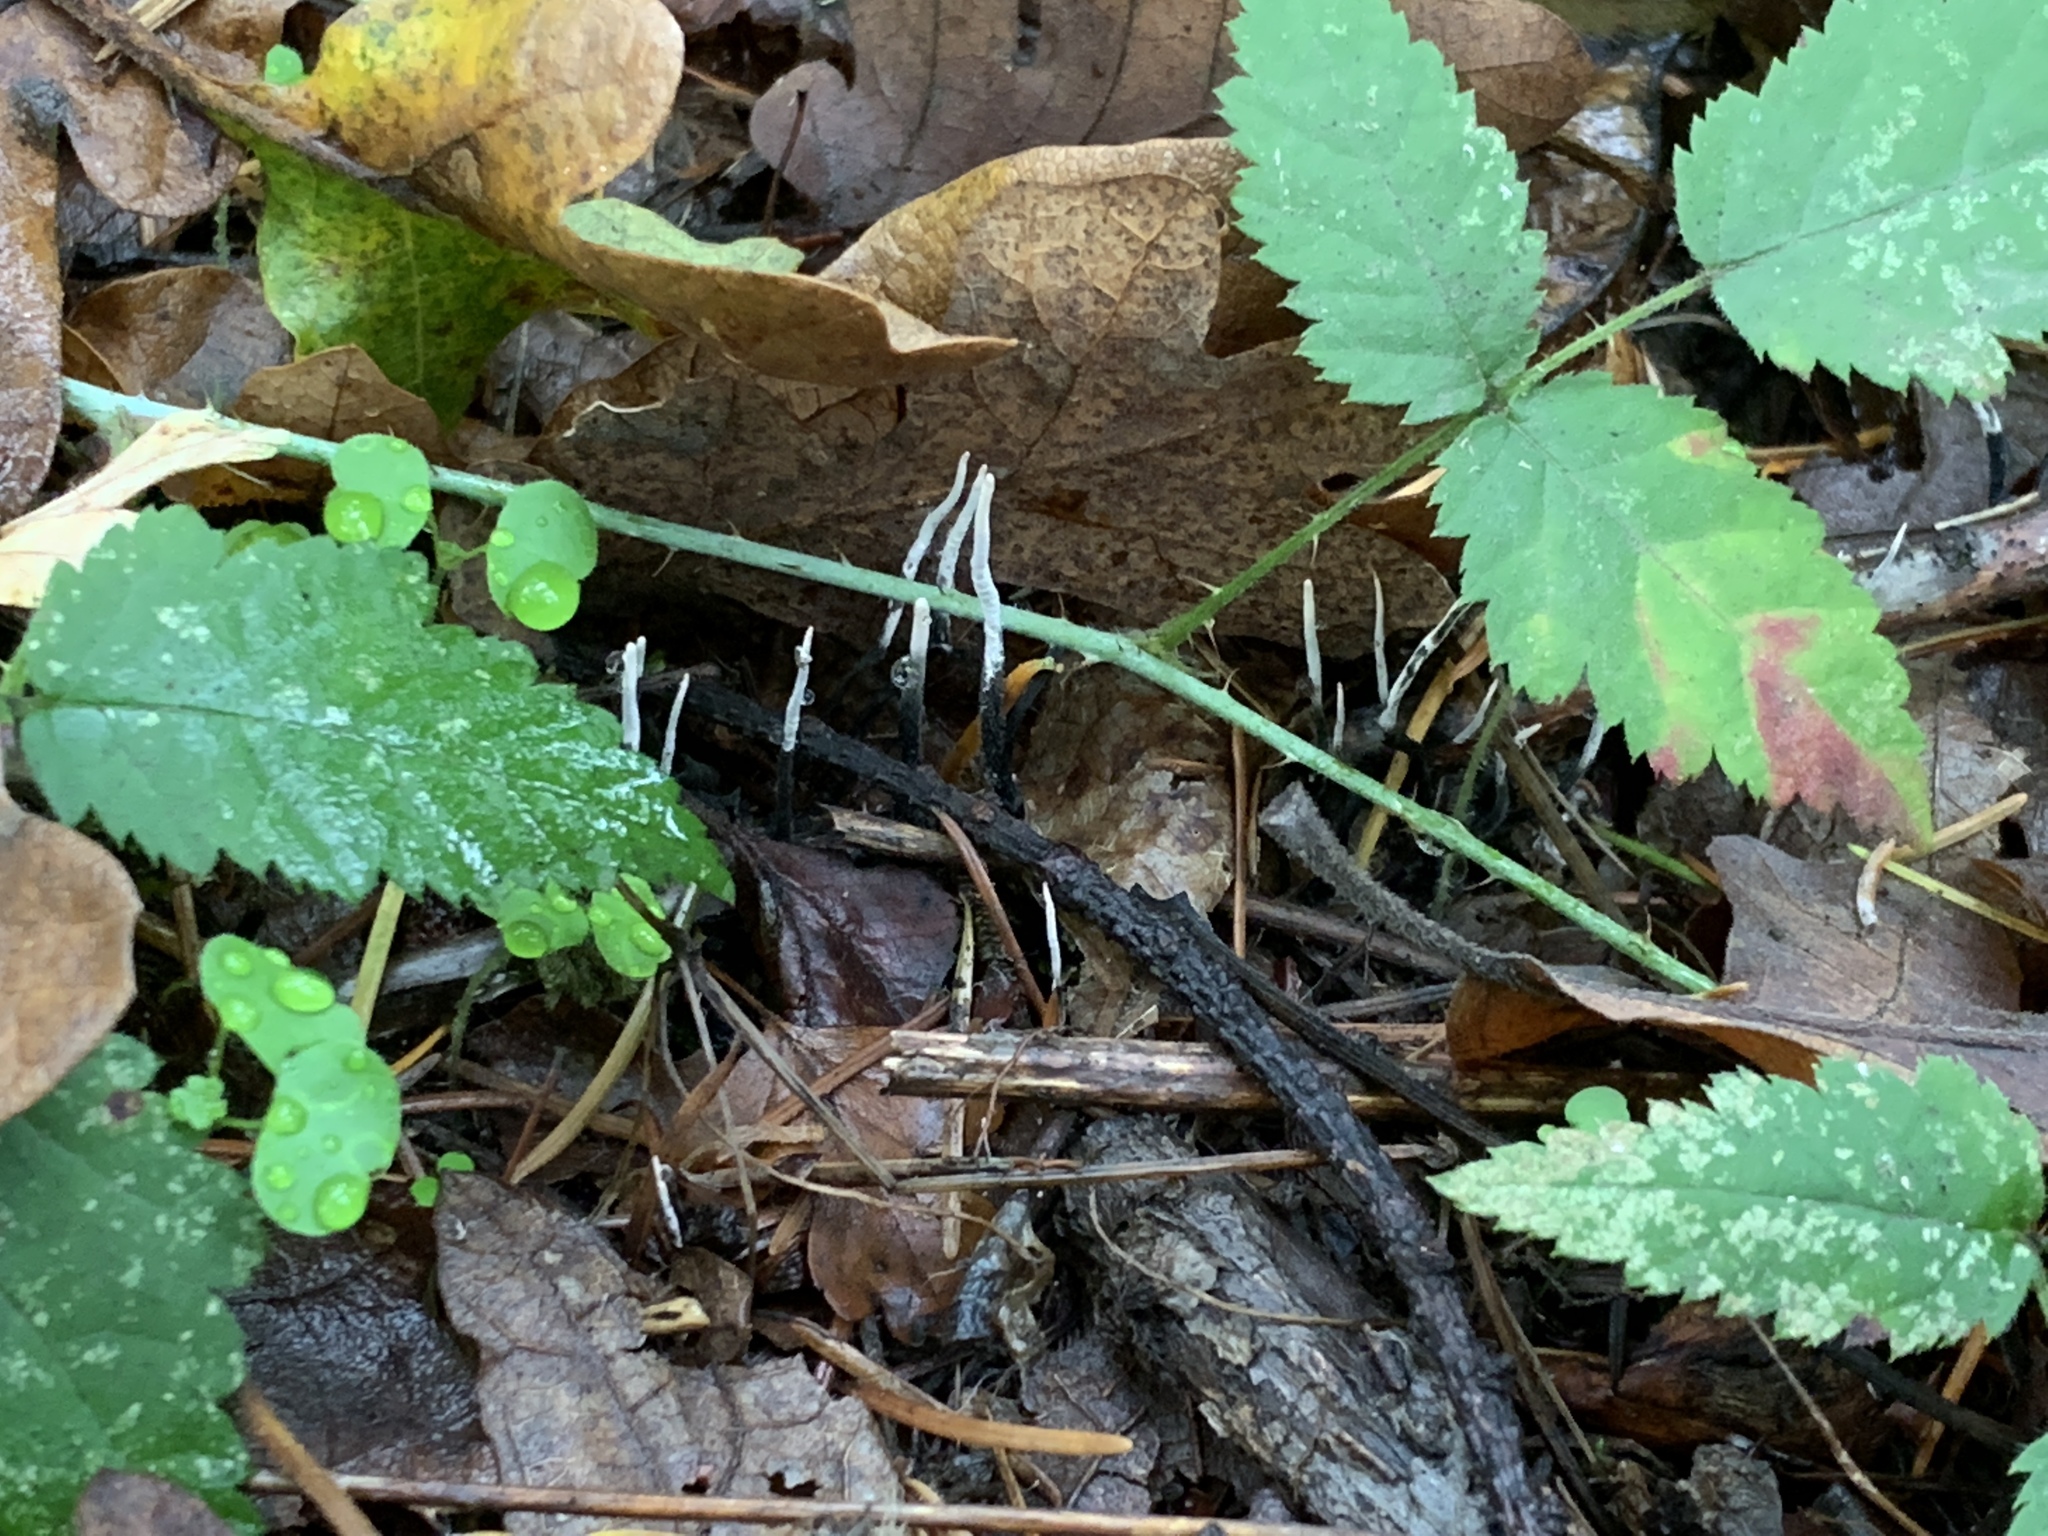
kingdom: Fungi
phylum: Ascomycota
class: Sordariomycetes
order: Xylariales
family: Xylariaceae
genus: Xylaria
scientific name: Xylaria hypoxylon
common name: Candle-snuff fungus
